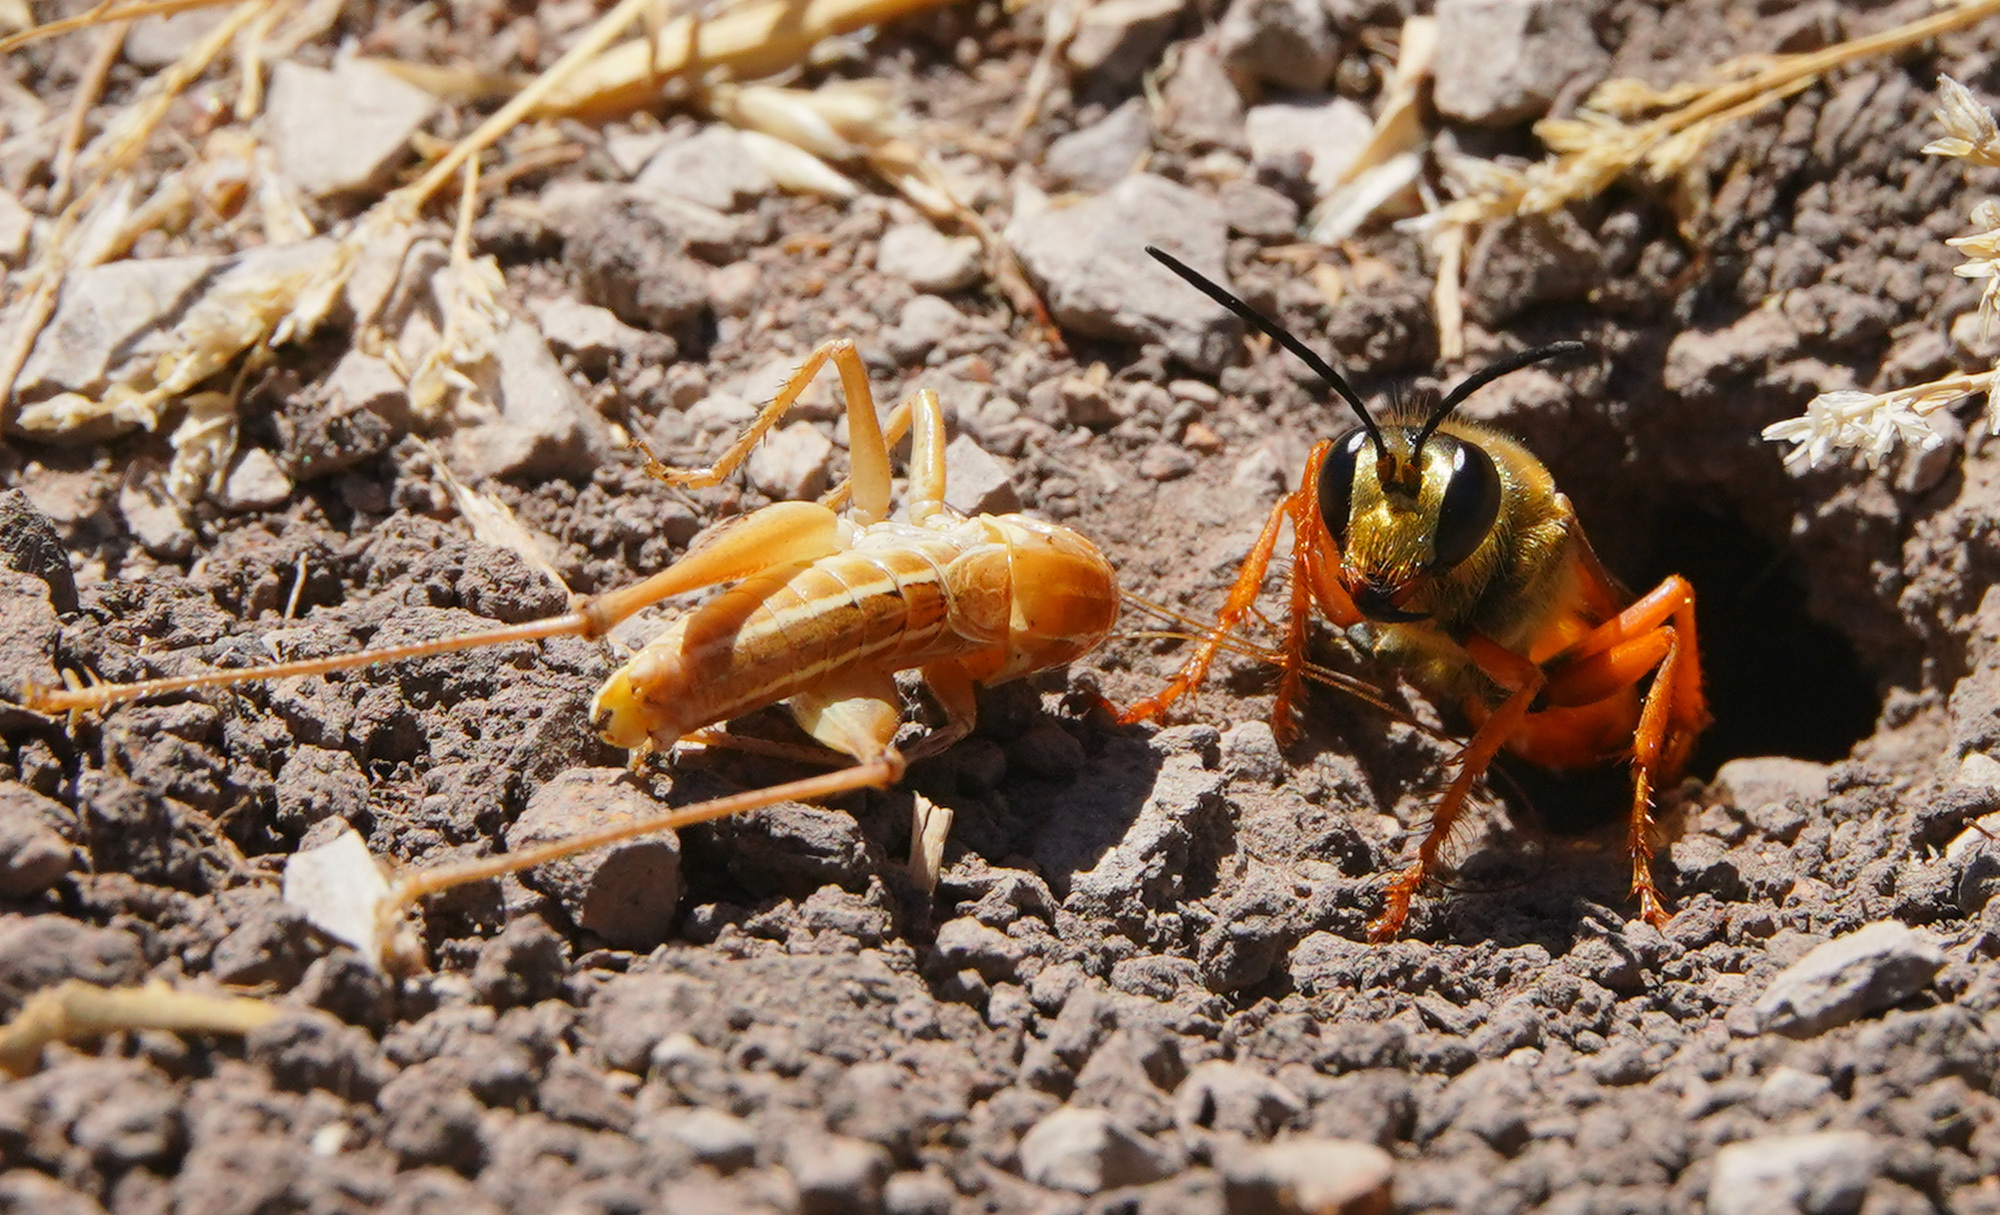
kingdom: Animalia
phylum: Arthropoda
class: Insecta
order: Hymenoptera
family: Sphecidae
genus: Sphex
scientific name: Sphex ichneumoneus
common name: Great golden digger wasp
